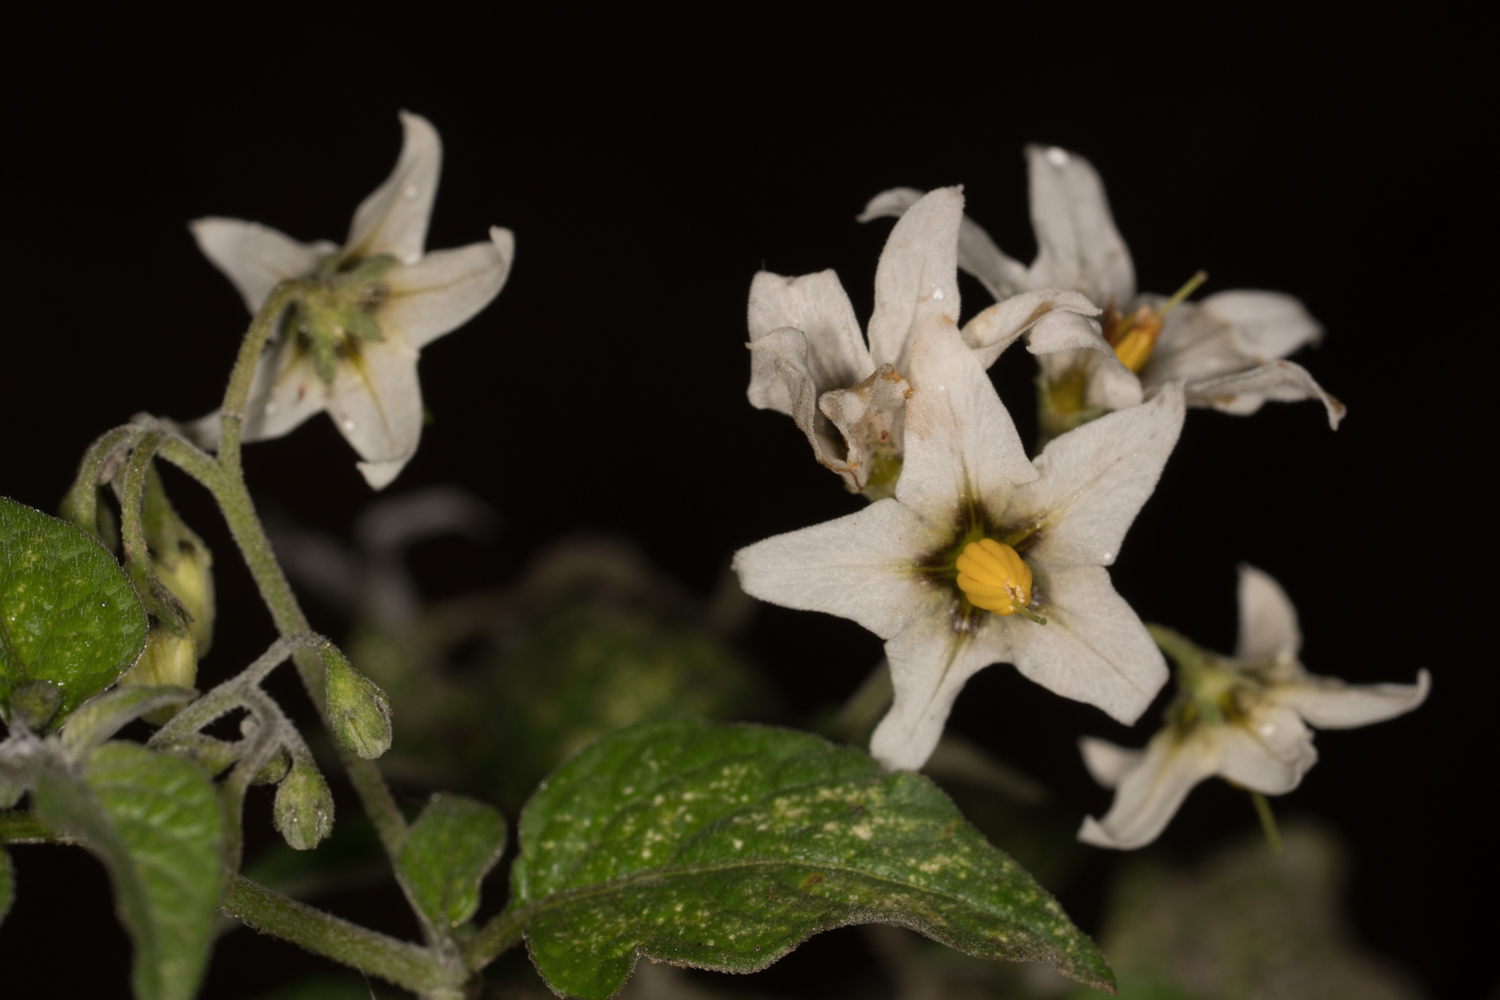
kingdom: Plantae
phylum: Tracheophyta
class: Magnoliopsida
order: Solanales
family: Solanaceae
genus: Solanum
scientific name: Solanum douglasii
